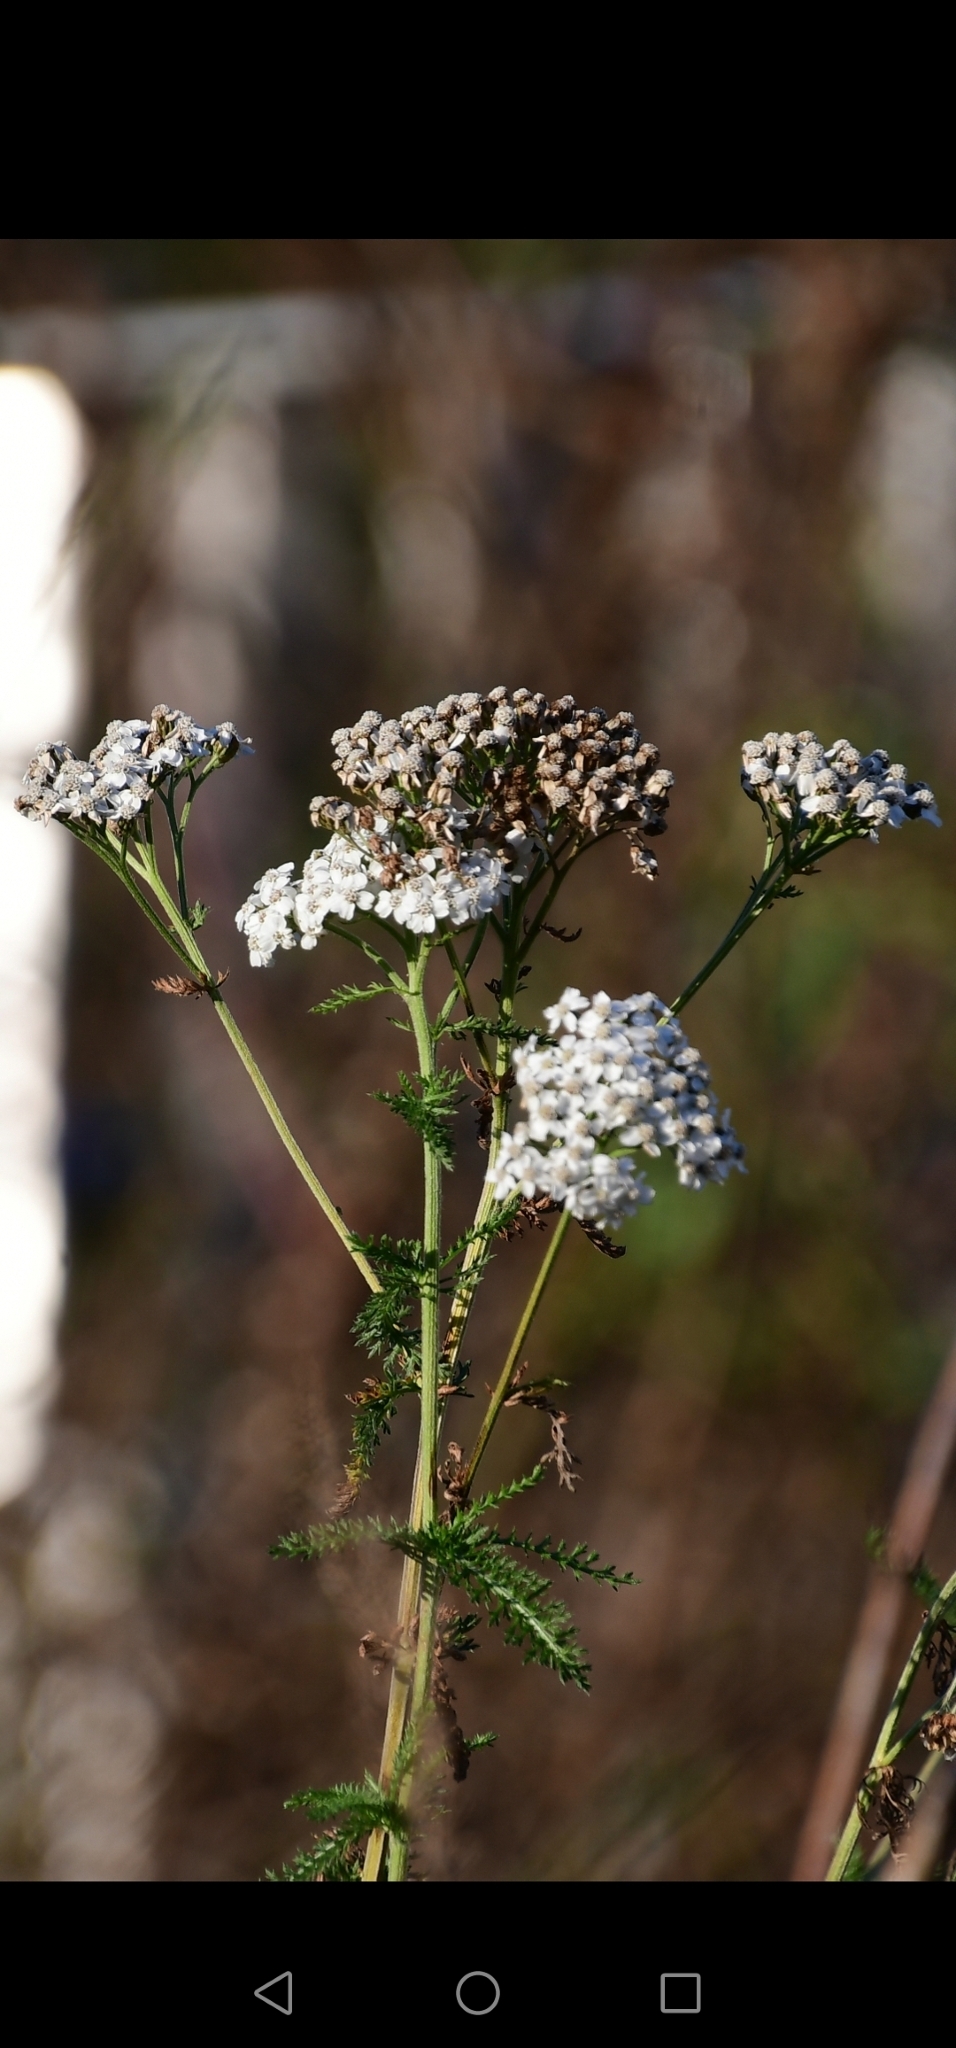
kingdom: Plantae
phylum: Tracheophyta
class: Magnoliopsida
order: Asterales
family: Asteraceae
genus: Achillea
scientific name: Achillea millefolium
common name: Yarrow
